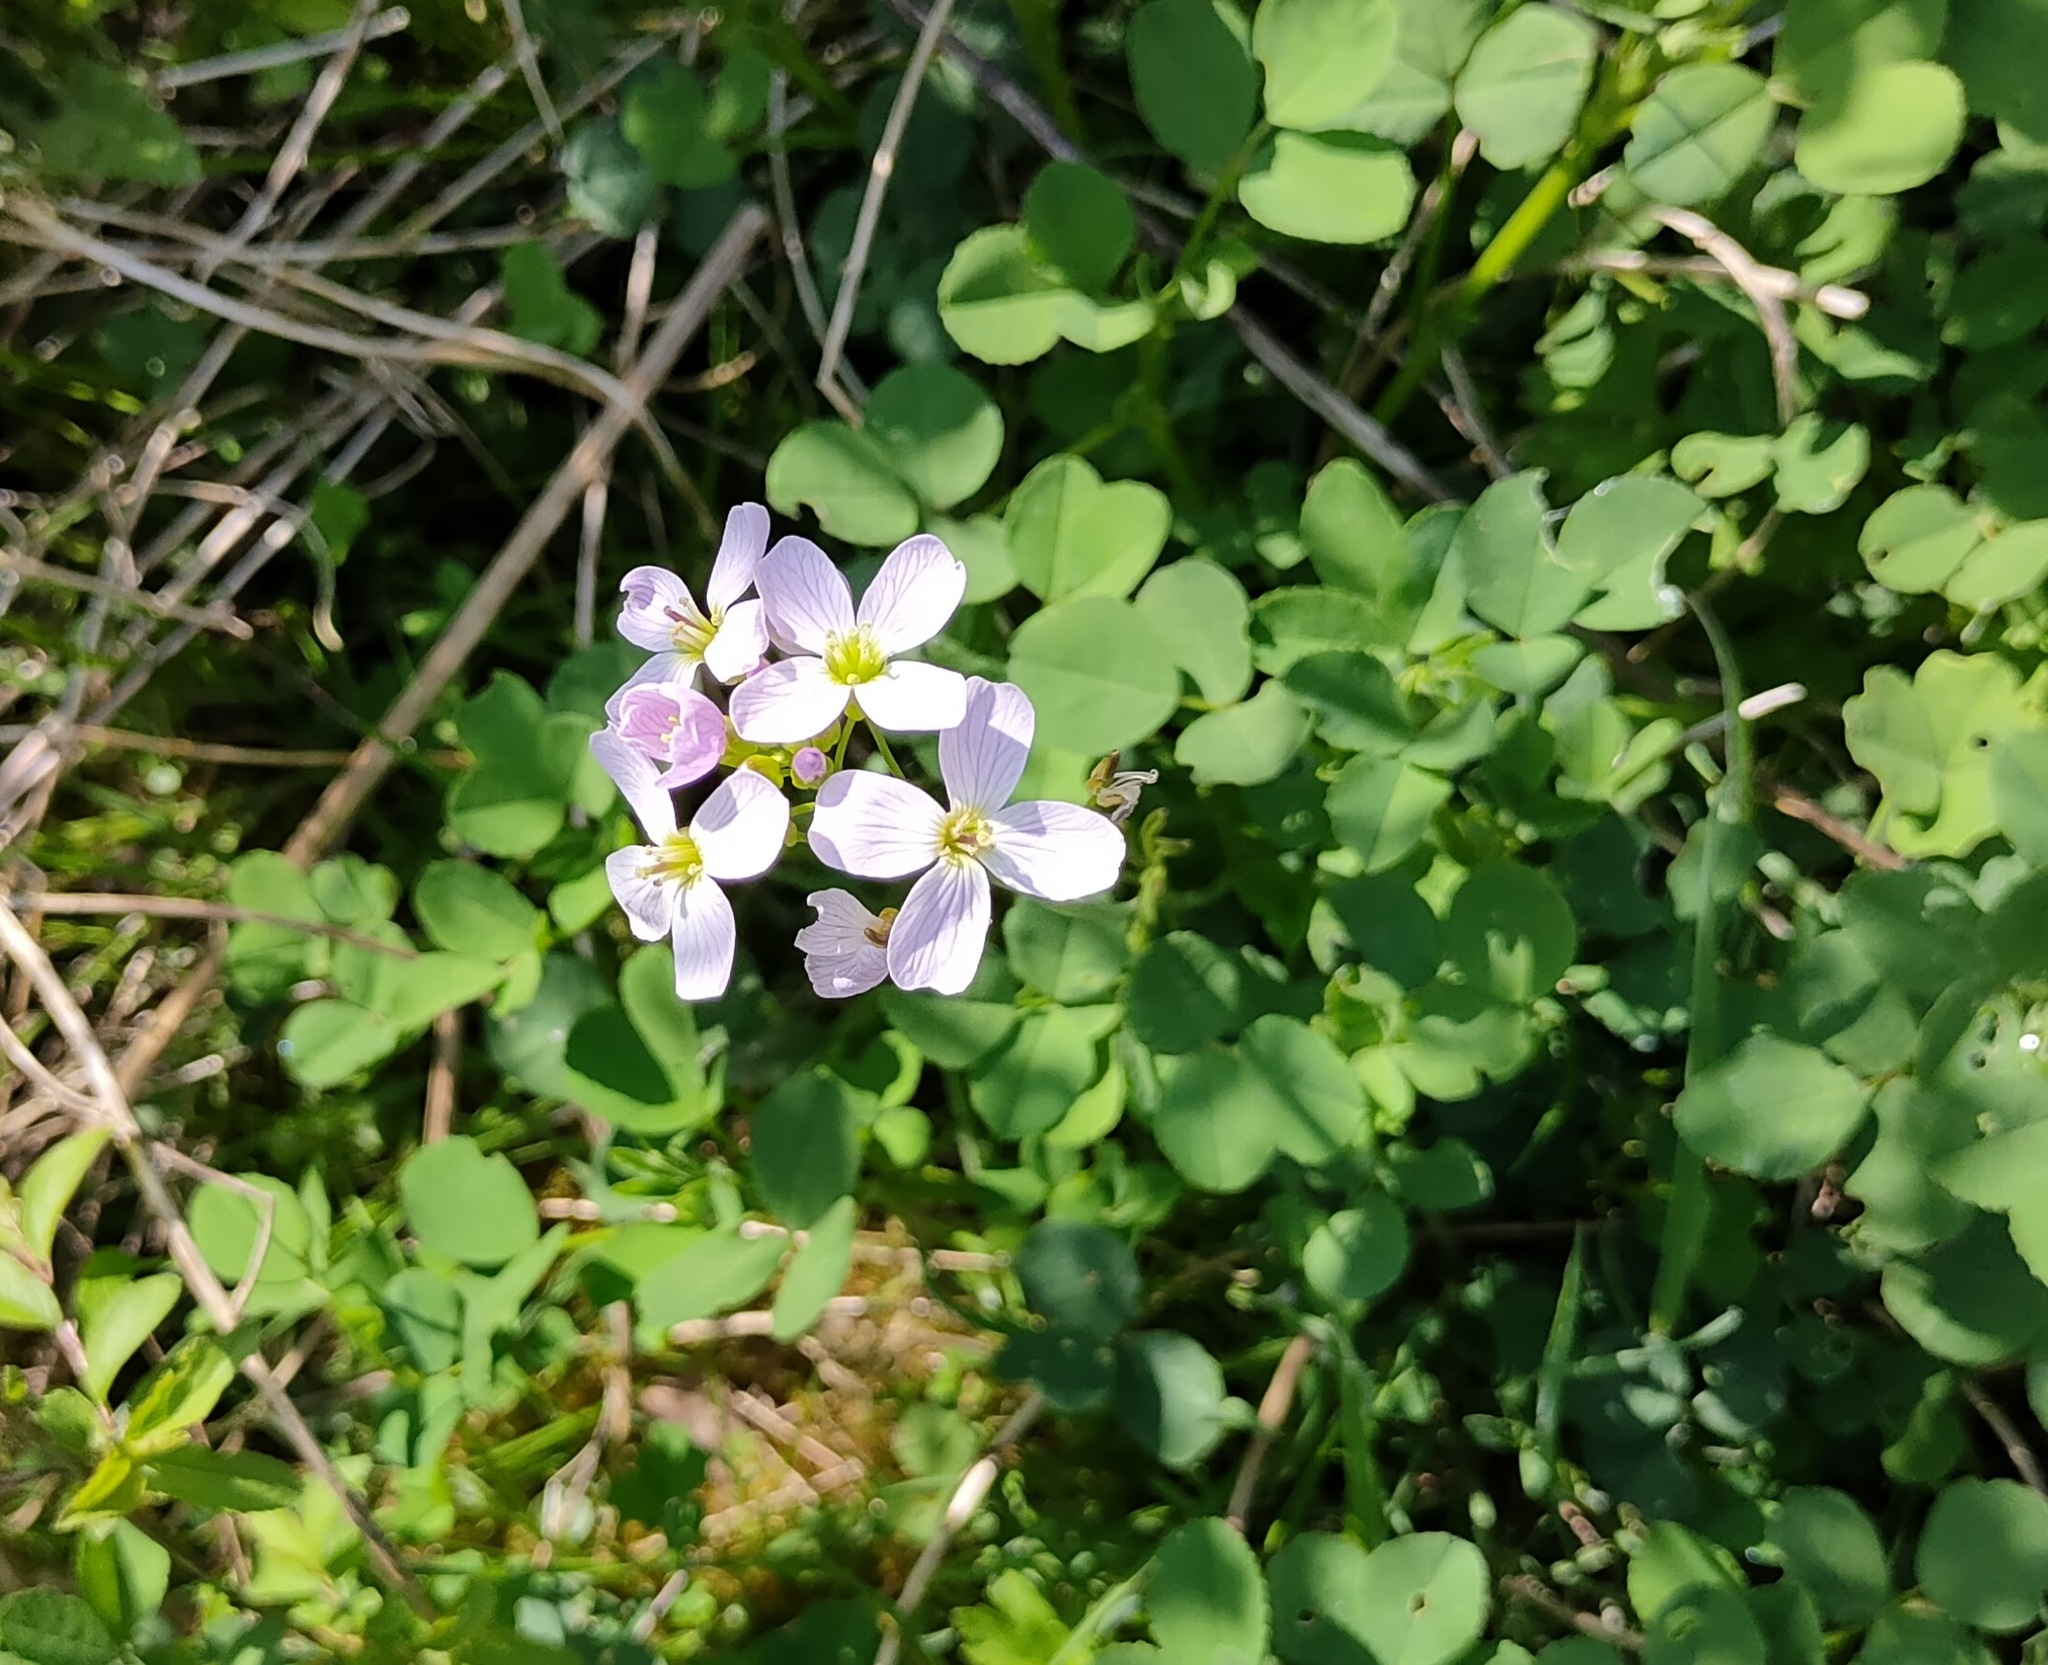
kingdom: Plantae
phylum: Tracheophyta
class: Magnoliopsida
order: Brassicales
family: Brassicaceae
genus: Cardamine
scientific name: Cardamine pratensis
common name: Cuckoo flower
